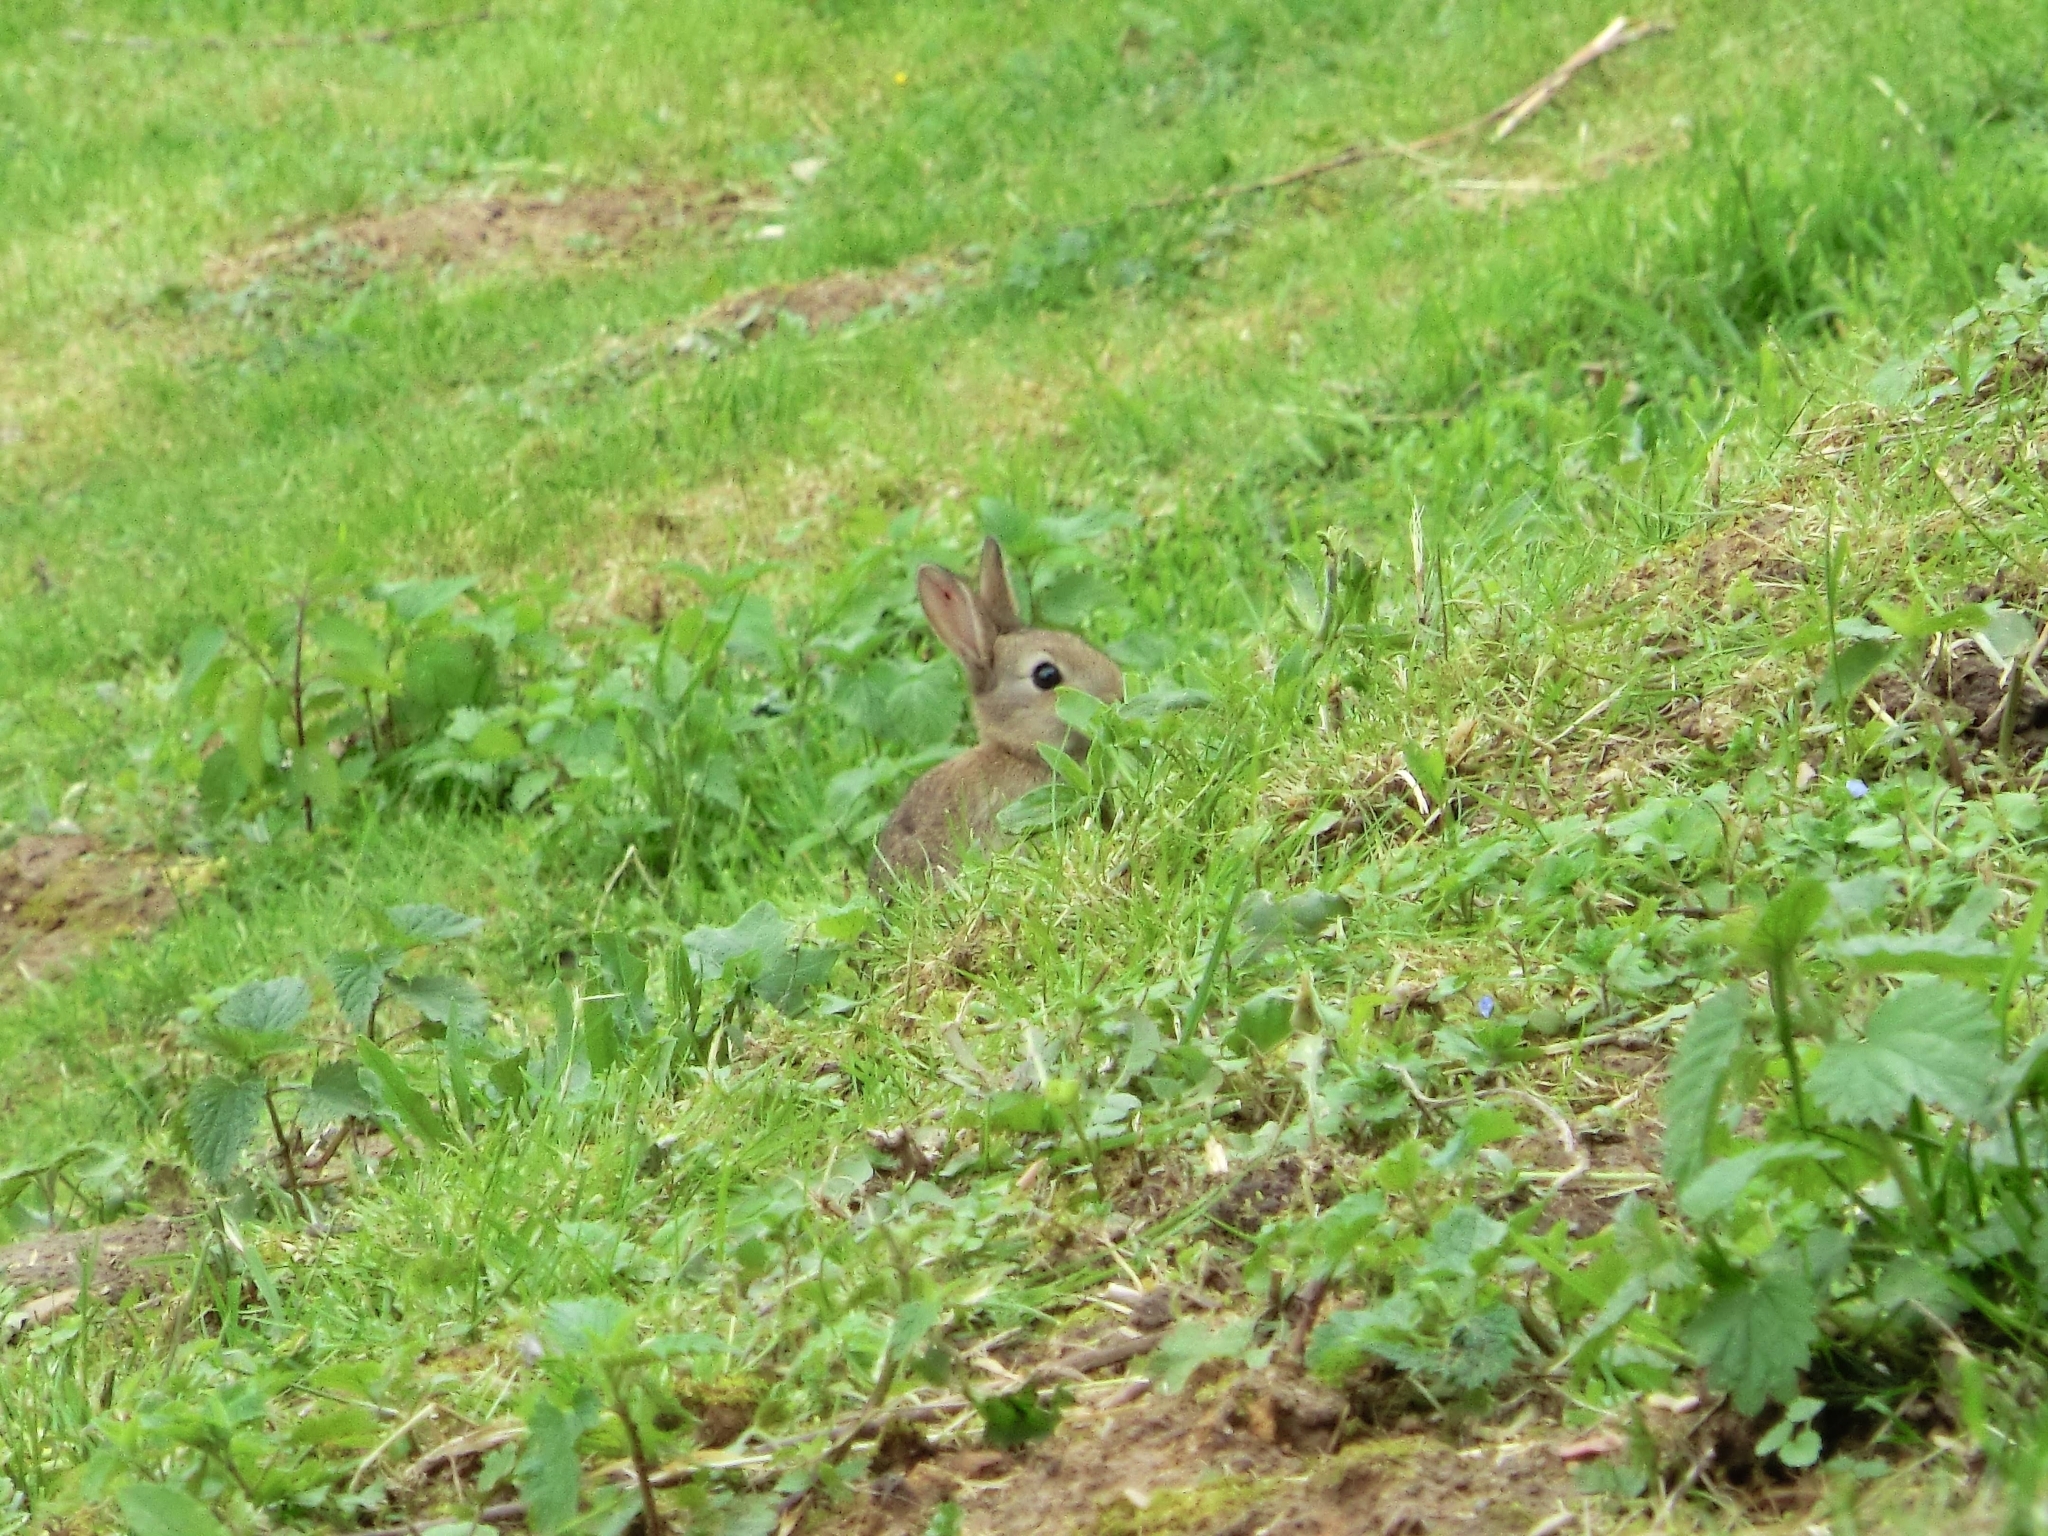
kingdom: Animalia
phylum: Chordata
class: Mammalia
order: Lagomorpha
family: Leporidae
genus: Oryctolagus
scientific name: Oryctolagus cuniculus
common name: European rabbit
